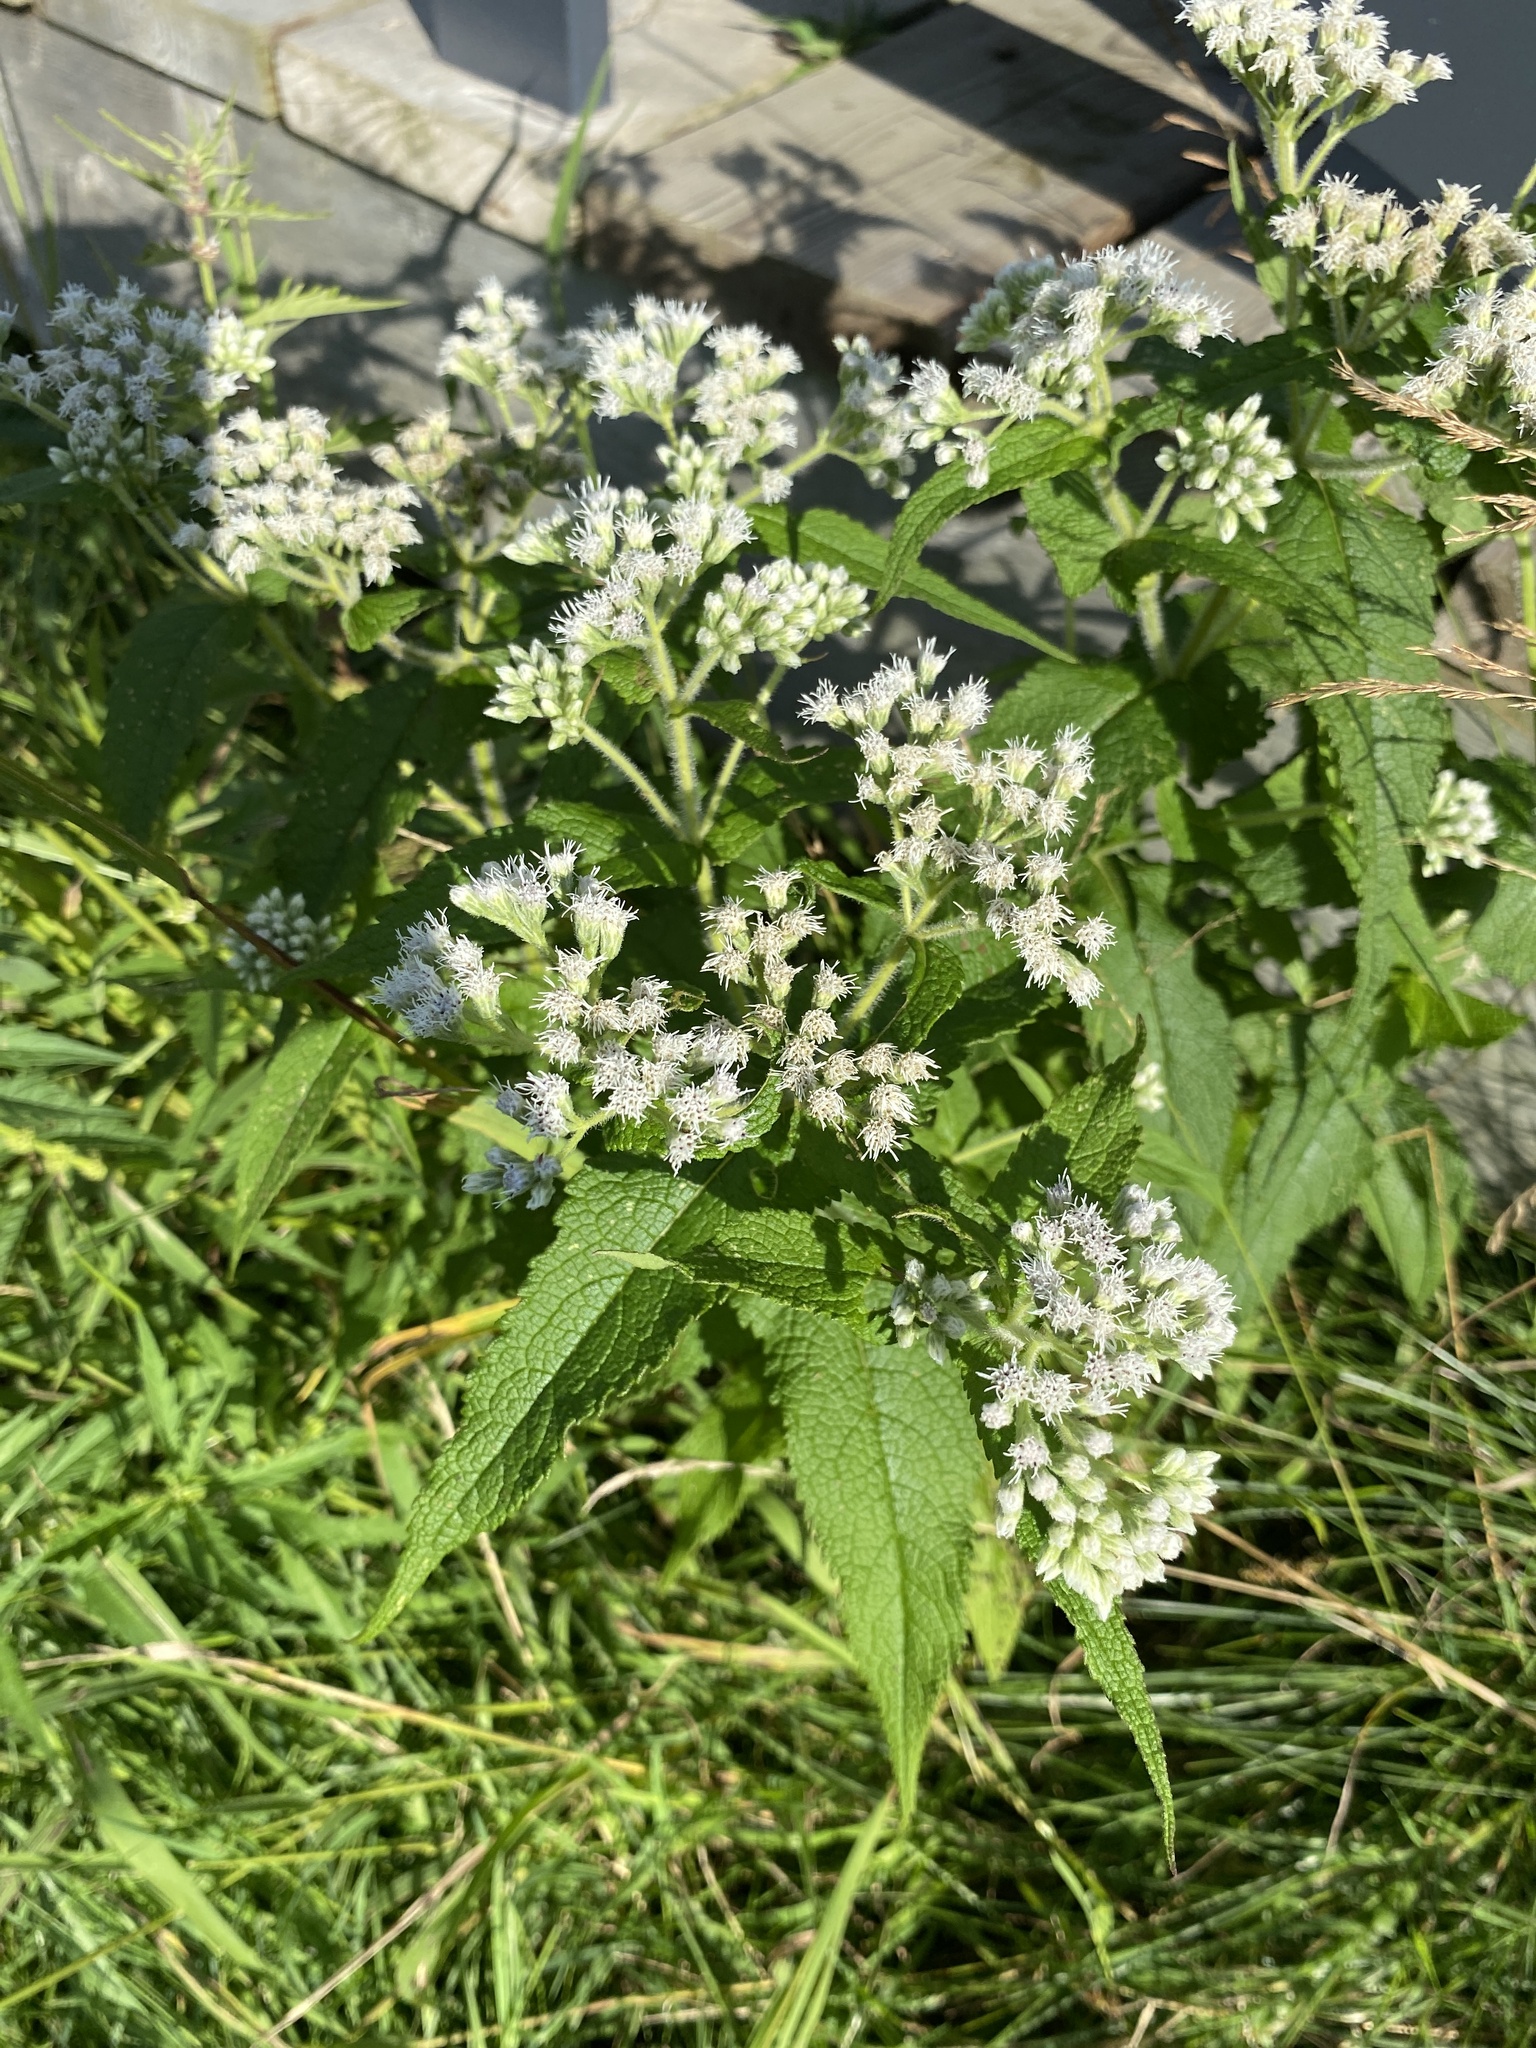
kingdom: Plantae
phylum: Tracheophyta
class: Magnoliopsida
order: Asterales
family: Asteraceae
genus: Eupatorium
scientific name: Eupatorium perfoliatum
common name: Boneset
